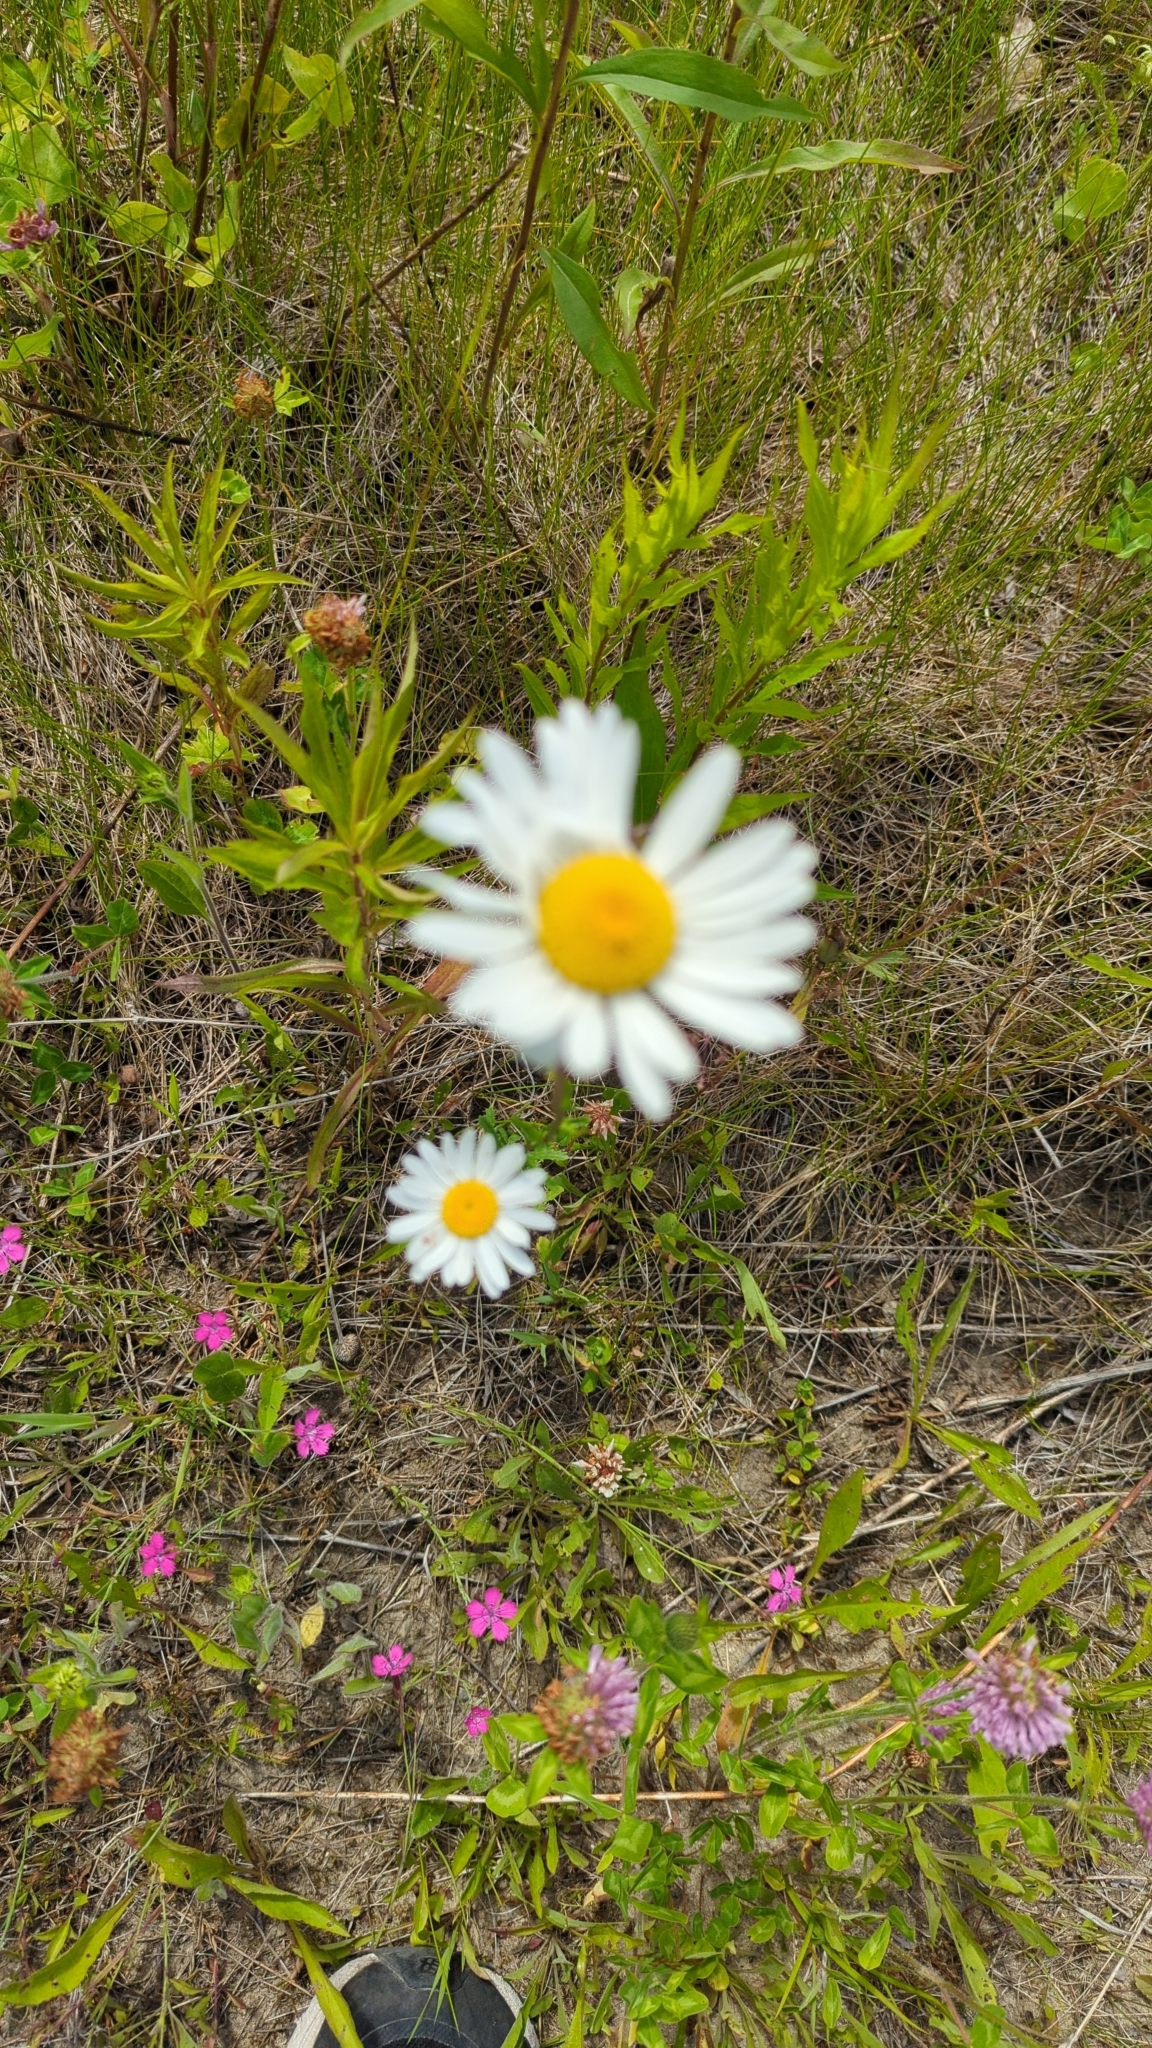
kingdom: Plantae
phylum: Tracheophyta
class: Magnoliopsida
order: Asterales
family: Asteraceae
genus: Leucanthemum
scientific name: Leucanthemum vulgare
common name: Oxeye daisy
